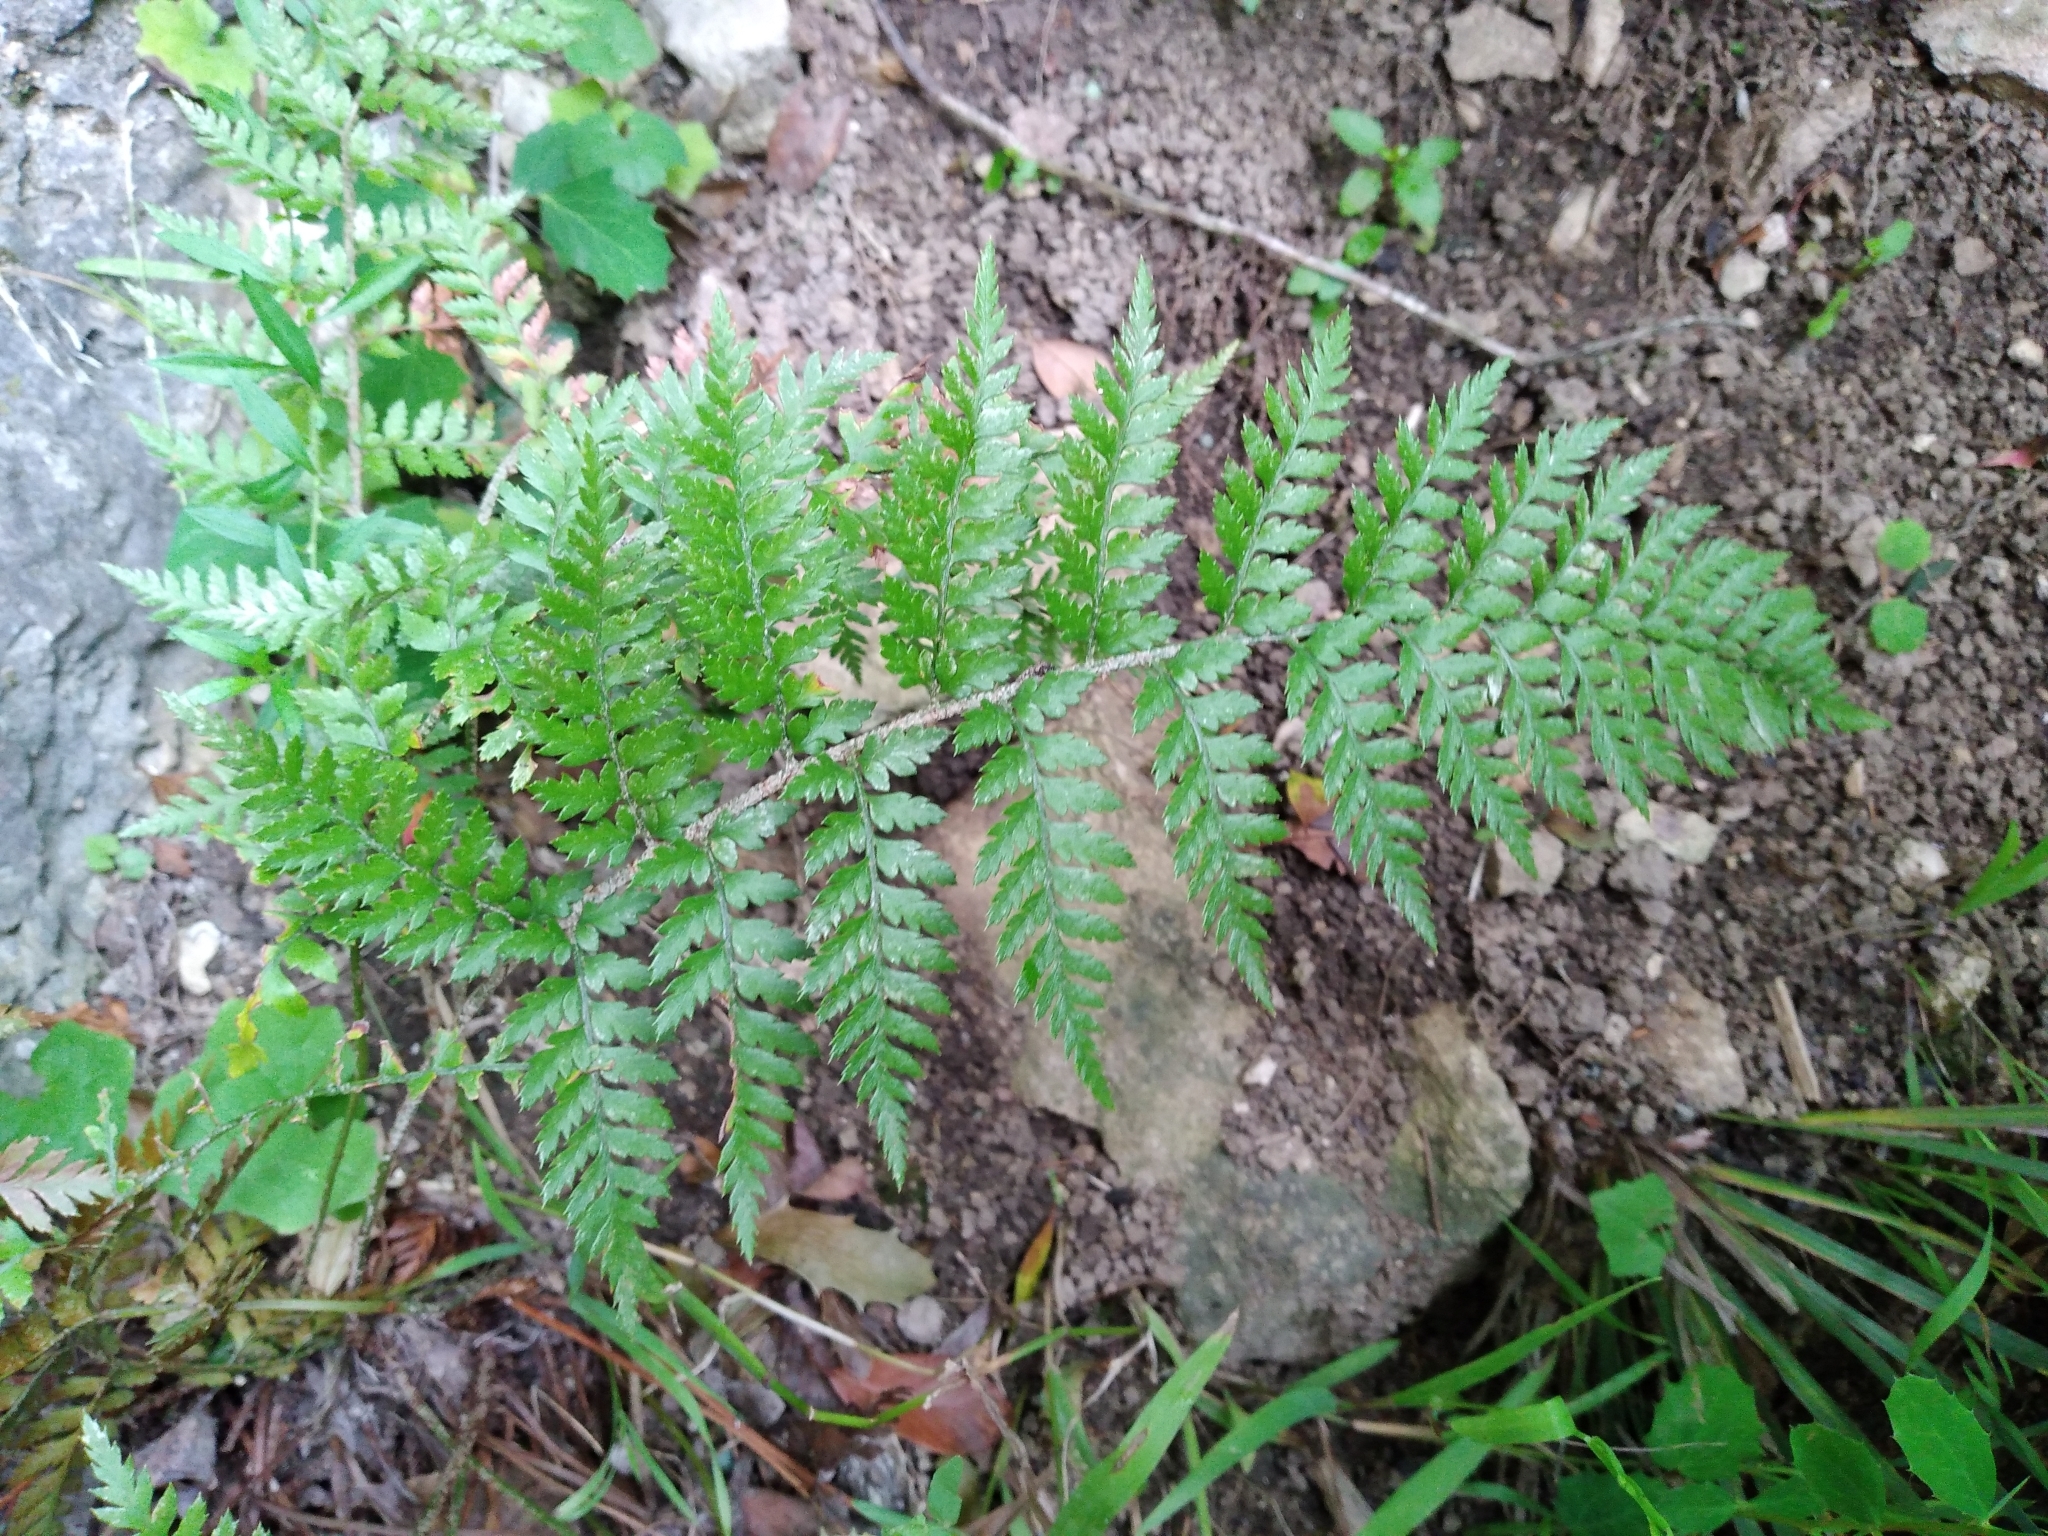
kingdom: Plantae
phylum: Tracheophyta
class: Polypodiopsida
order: Polypodiales
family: Dryopteridaceae
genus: Polystichum
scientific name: Polystichum oculatum
